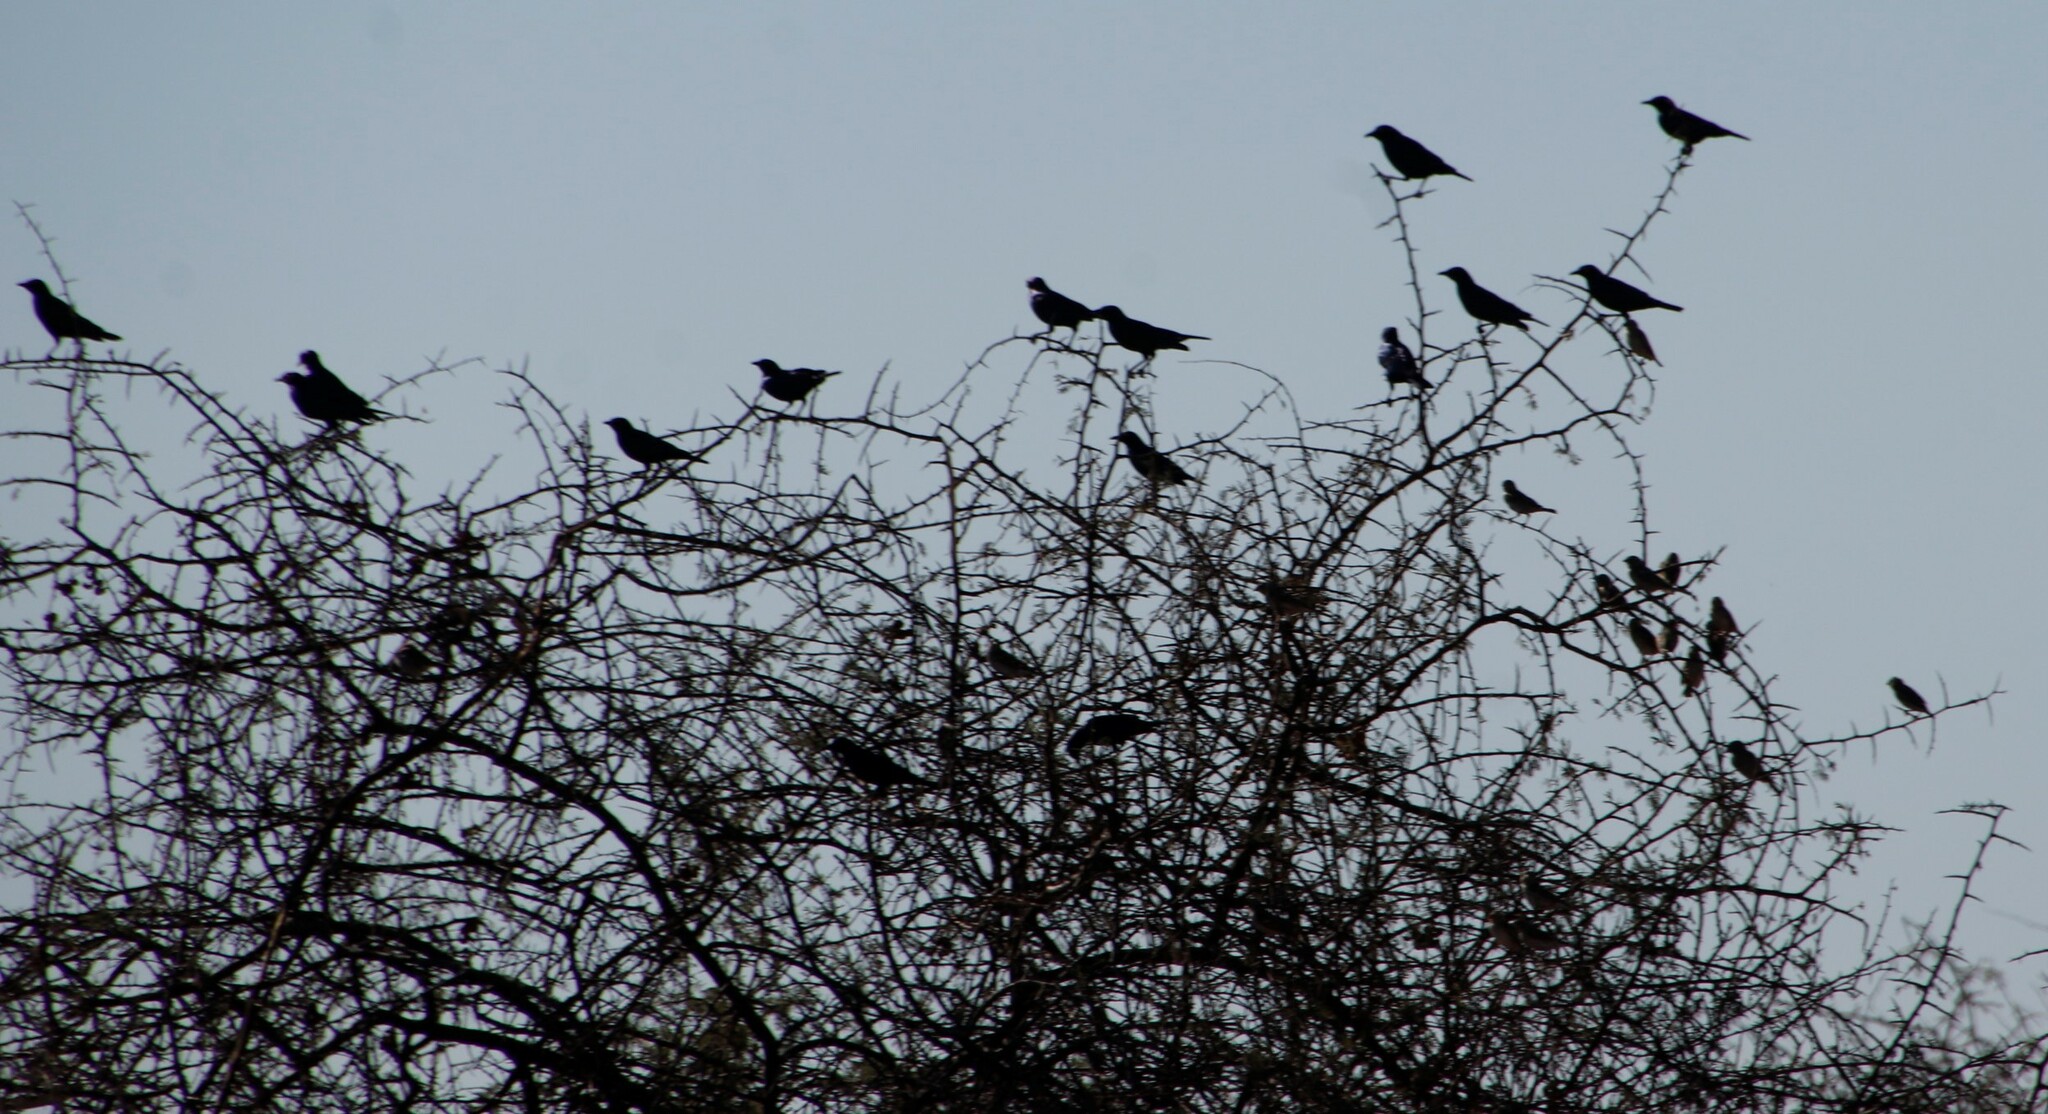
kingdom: Animalia
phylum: Chordata
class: Aves
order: Passeriformes
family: Sturnidae
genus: Lamprotornis
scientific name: Lamprotornis nitens
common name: Cape starling
